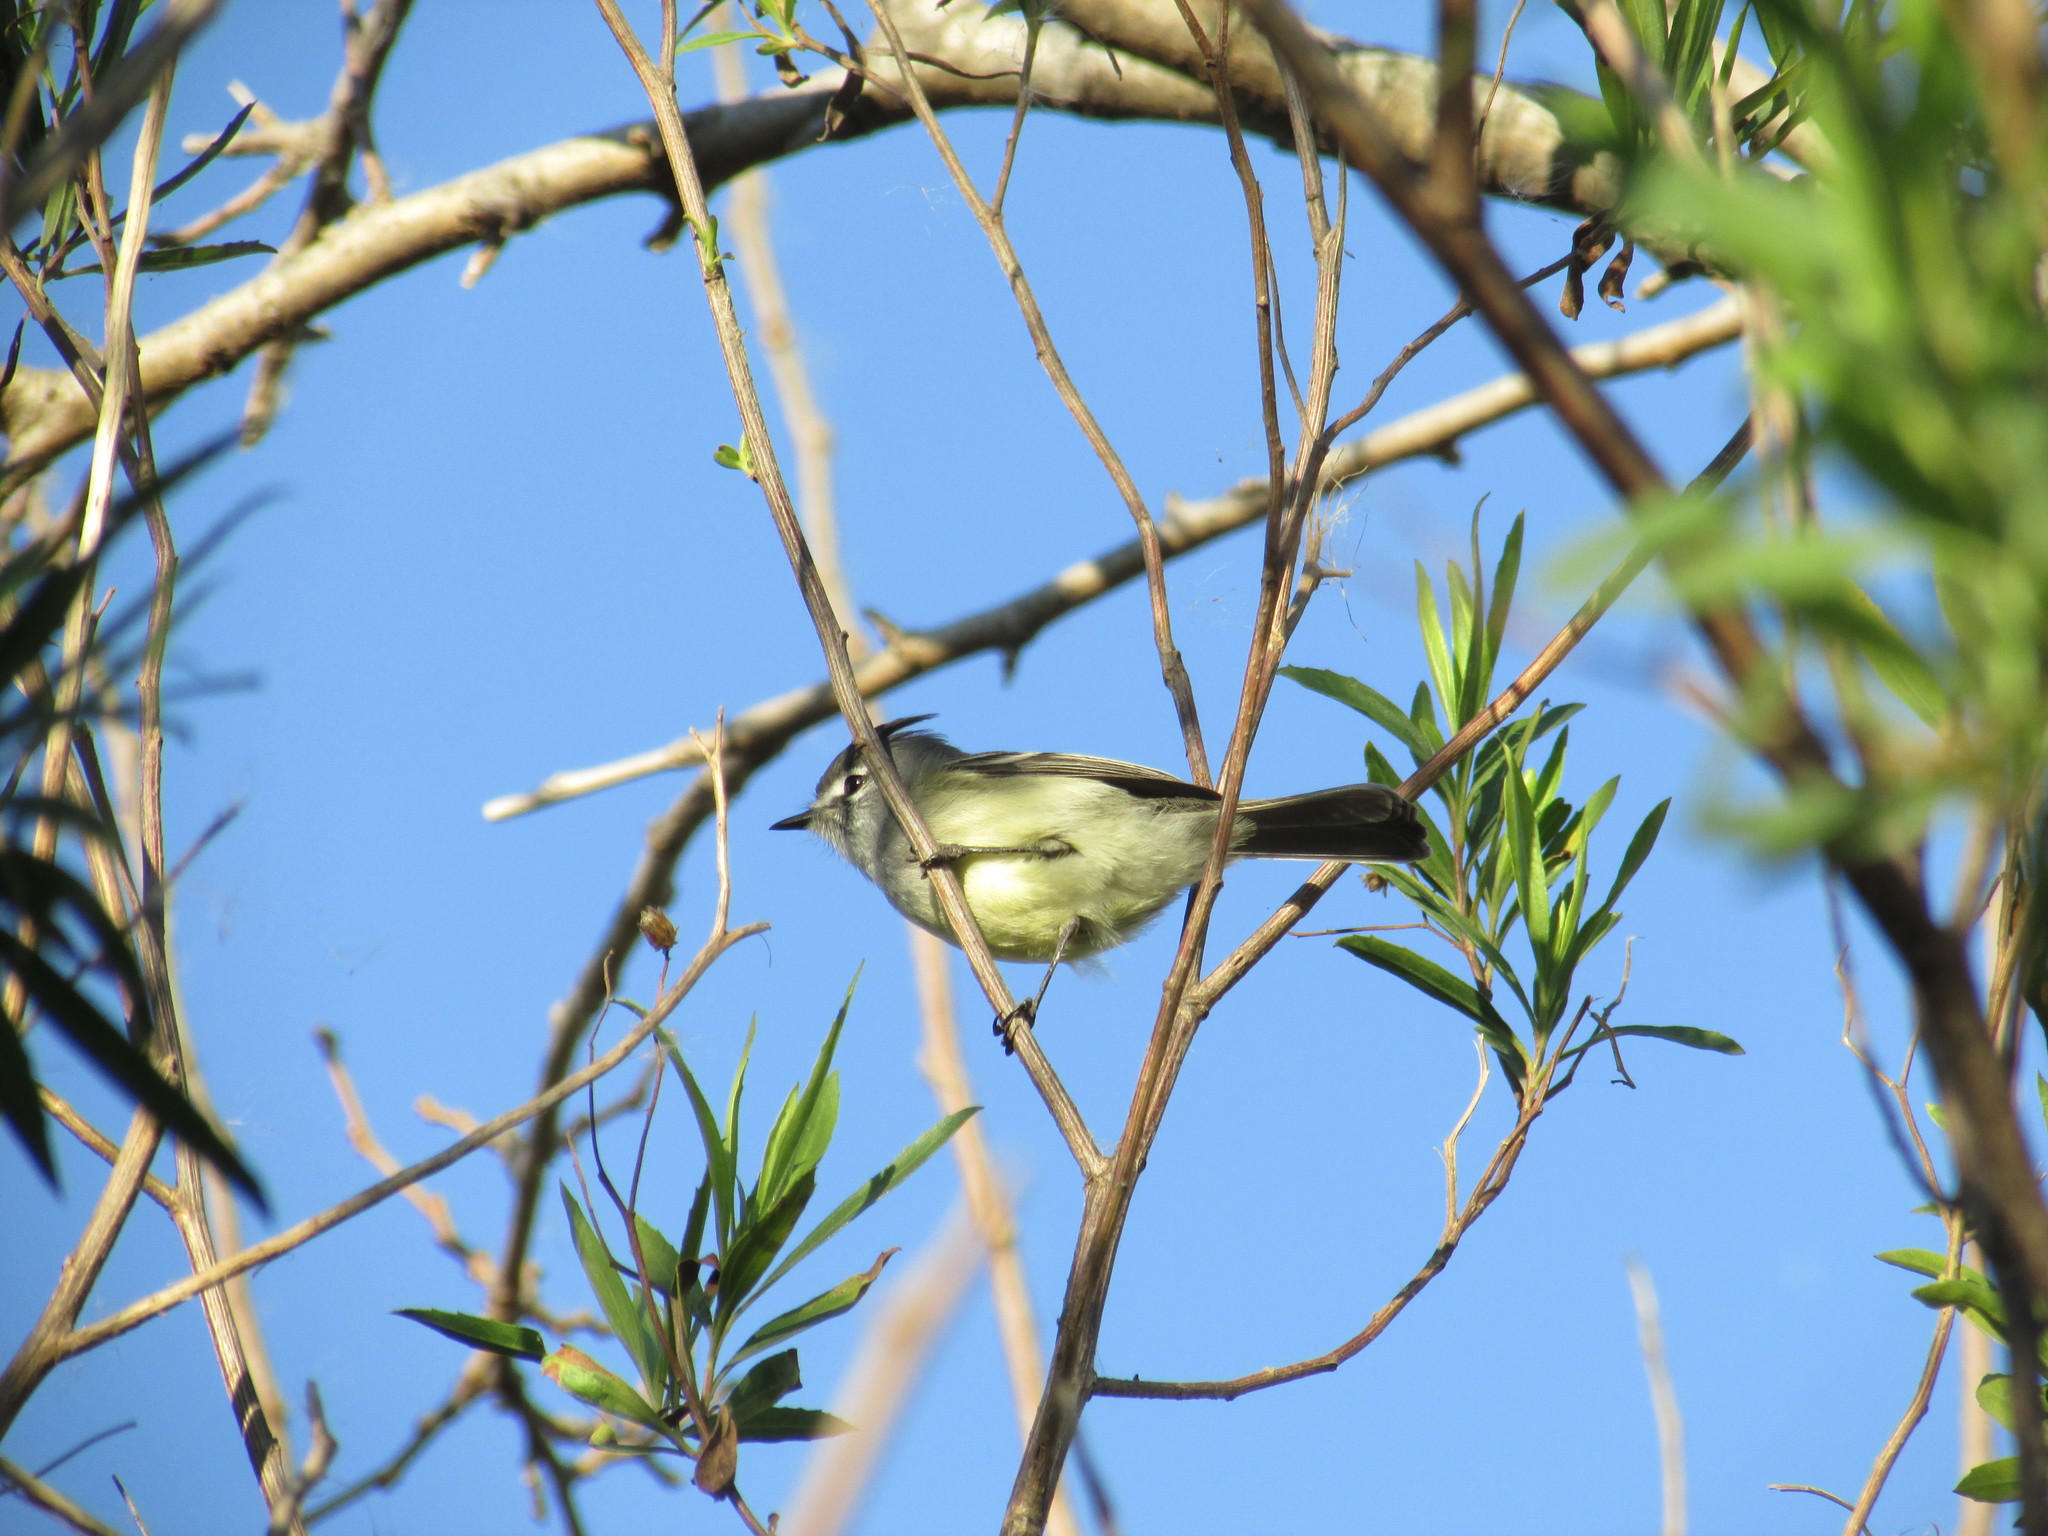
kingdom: Animalia
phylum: Chordata
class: Aves
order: Passeriformes
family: Tyrannidae
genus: Serpophaga
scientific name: Serpophaga subcristata
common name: White-crested tyrannulet
